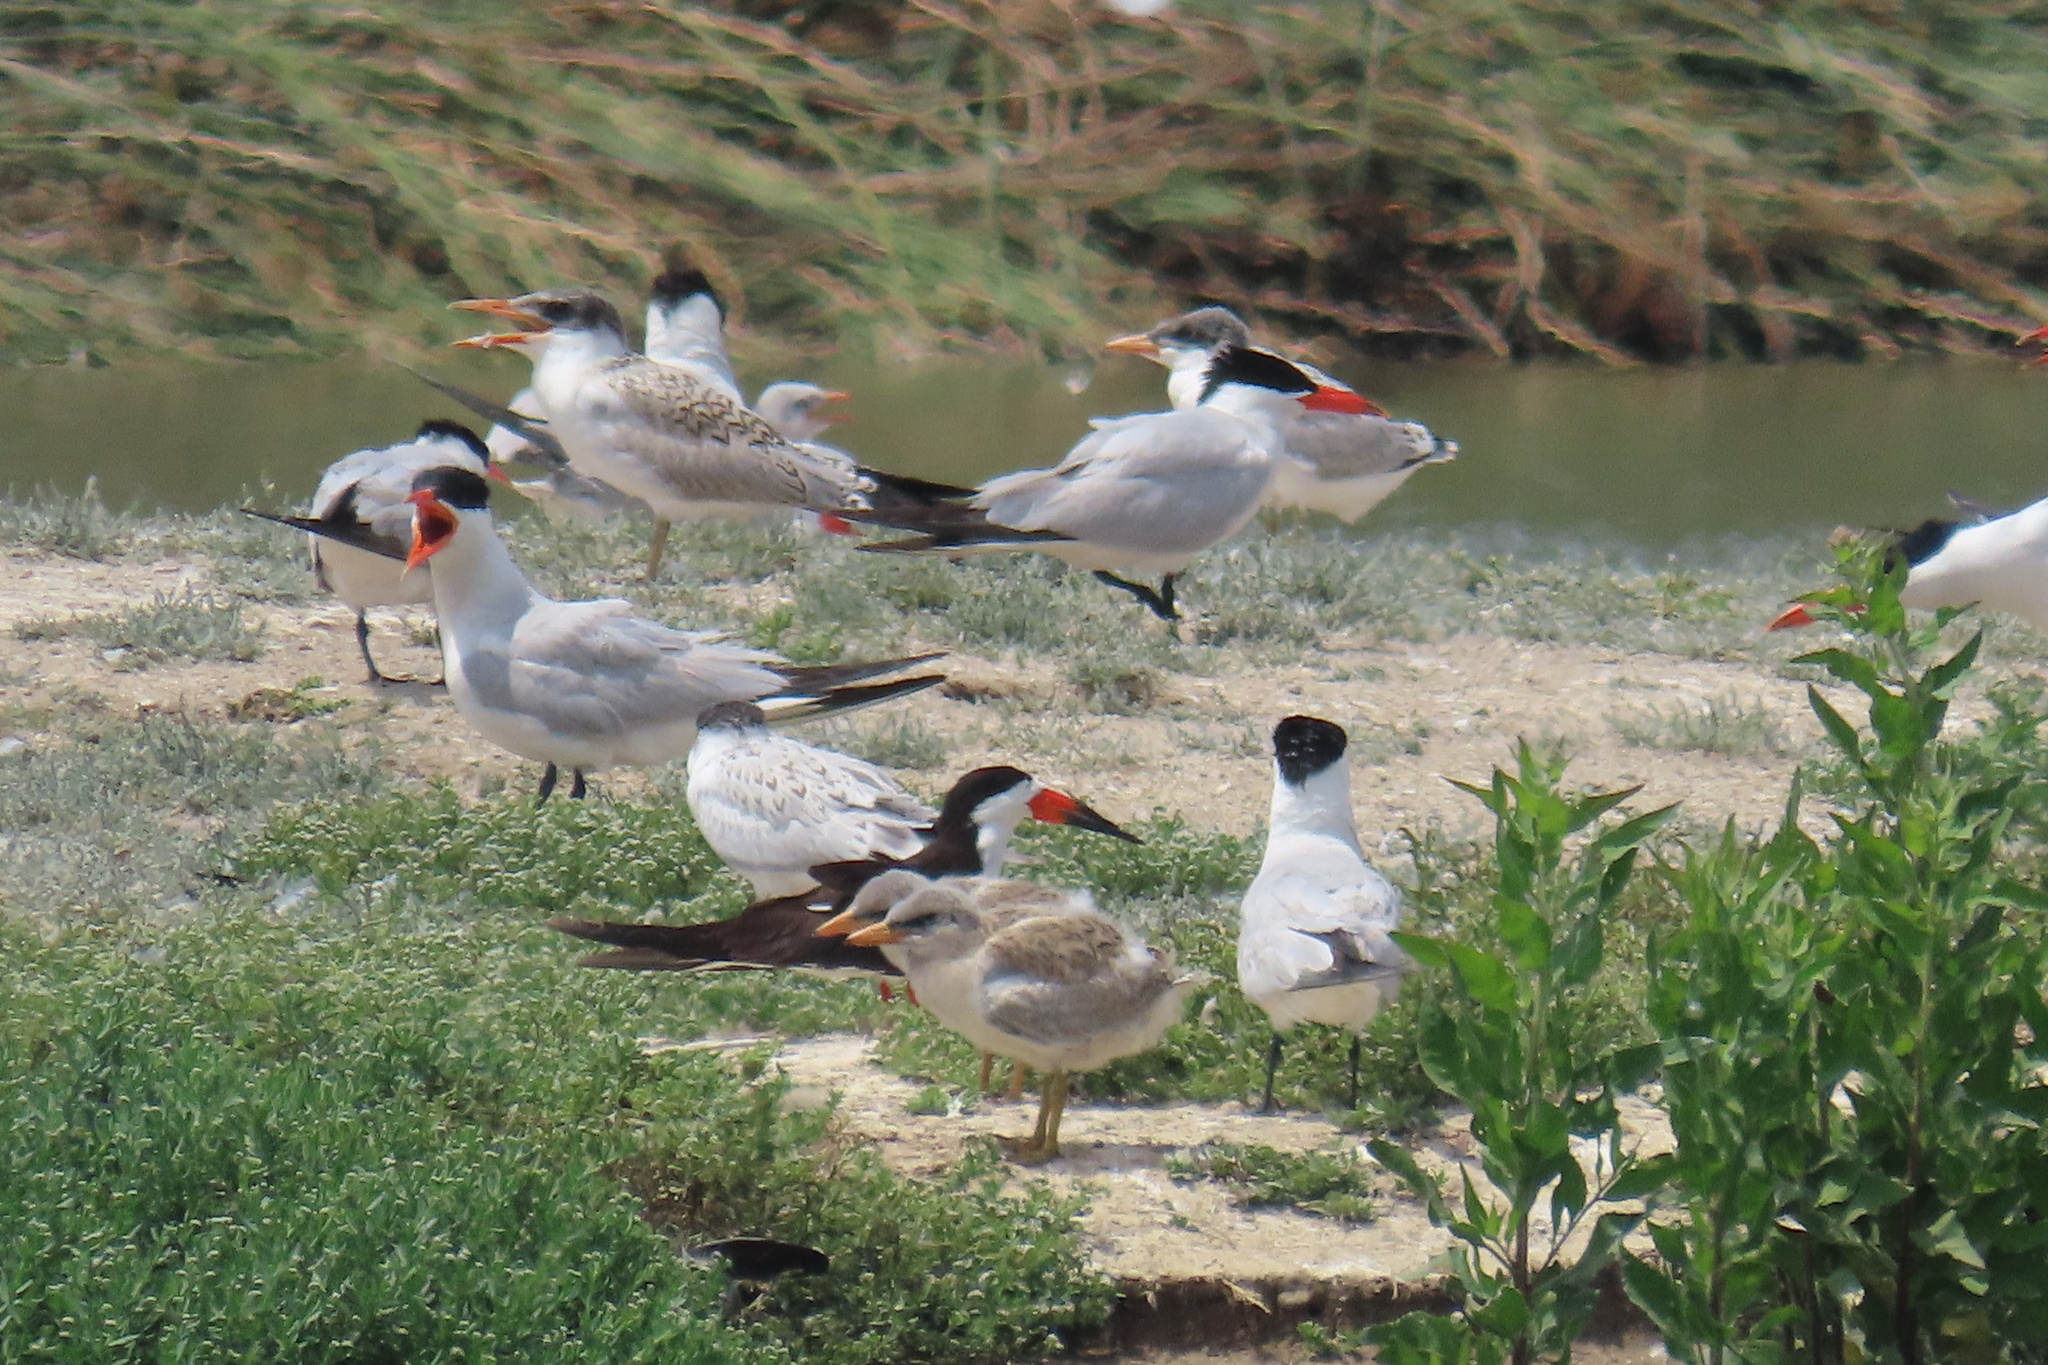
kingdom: Animalia
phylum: Chordata
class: Aves
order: Charadriiformes
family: Laridae
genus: Rynchops
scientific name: Rynchops niger
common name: Black skimmer
